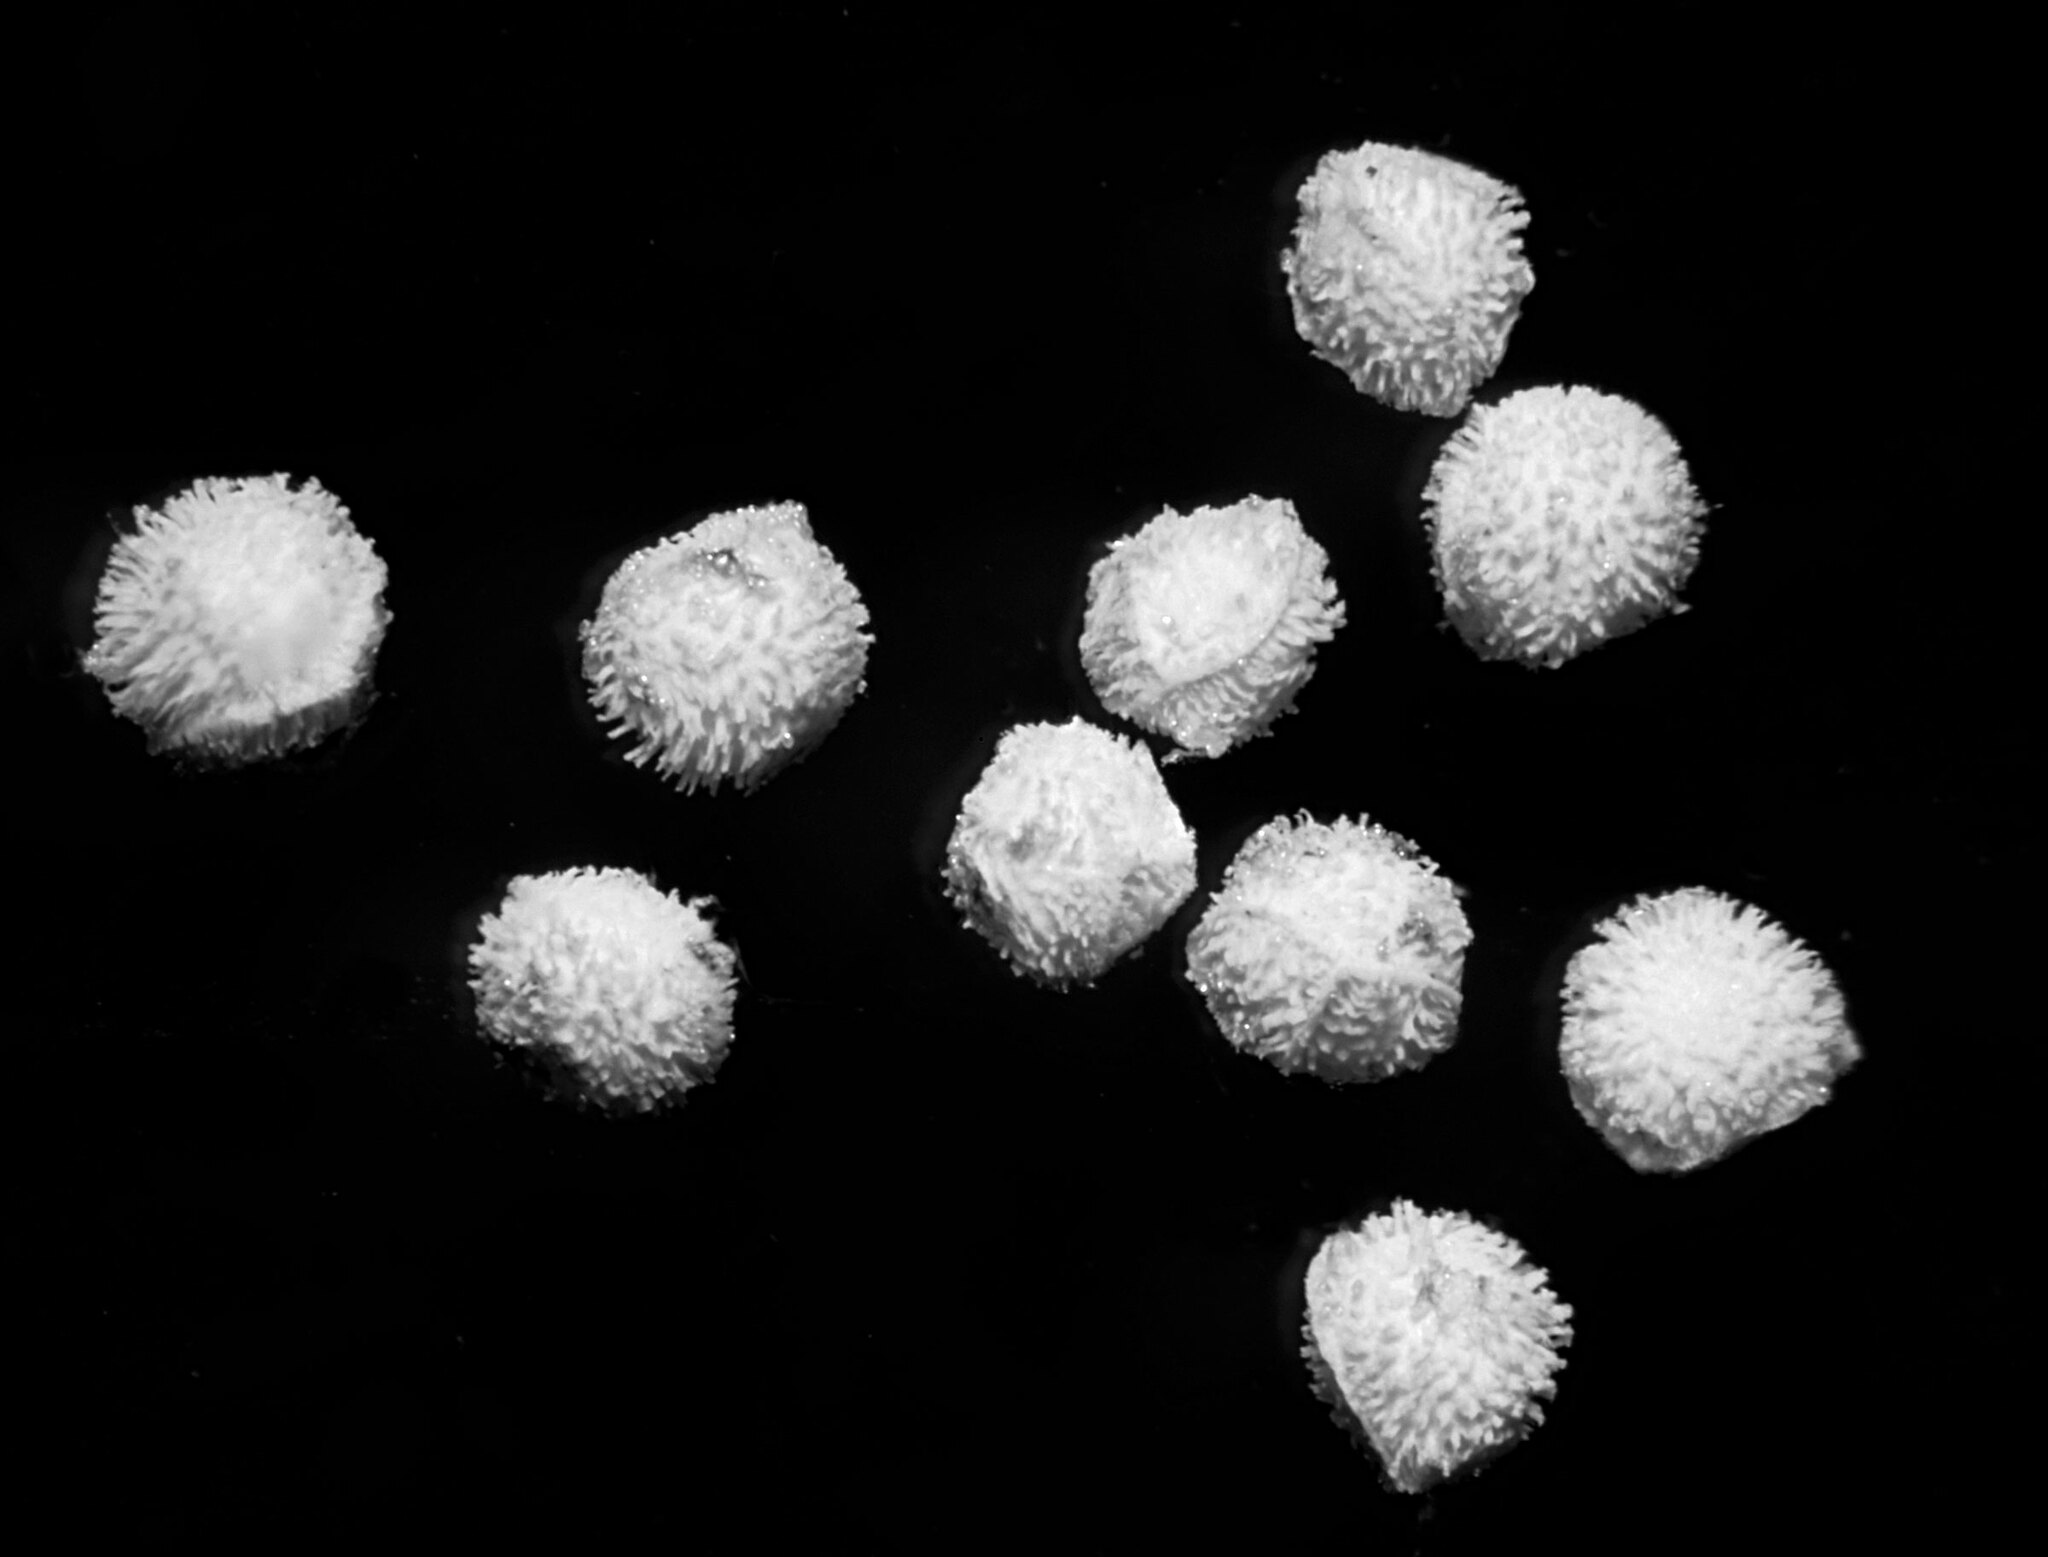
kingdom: Plantae
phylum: Tracheophyta
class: Lycopodiopsida
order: Isoetales
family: Isoetaceae
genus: Isoetes
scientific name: Isoetes echinospora
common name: Spring quillwort
